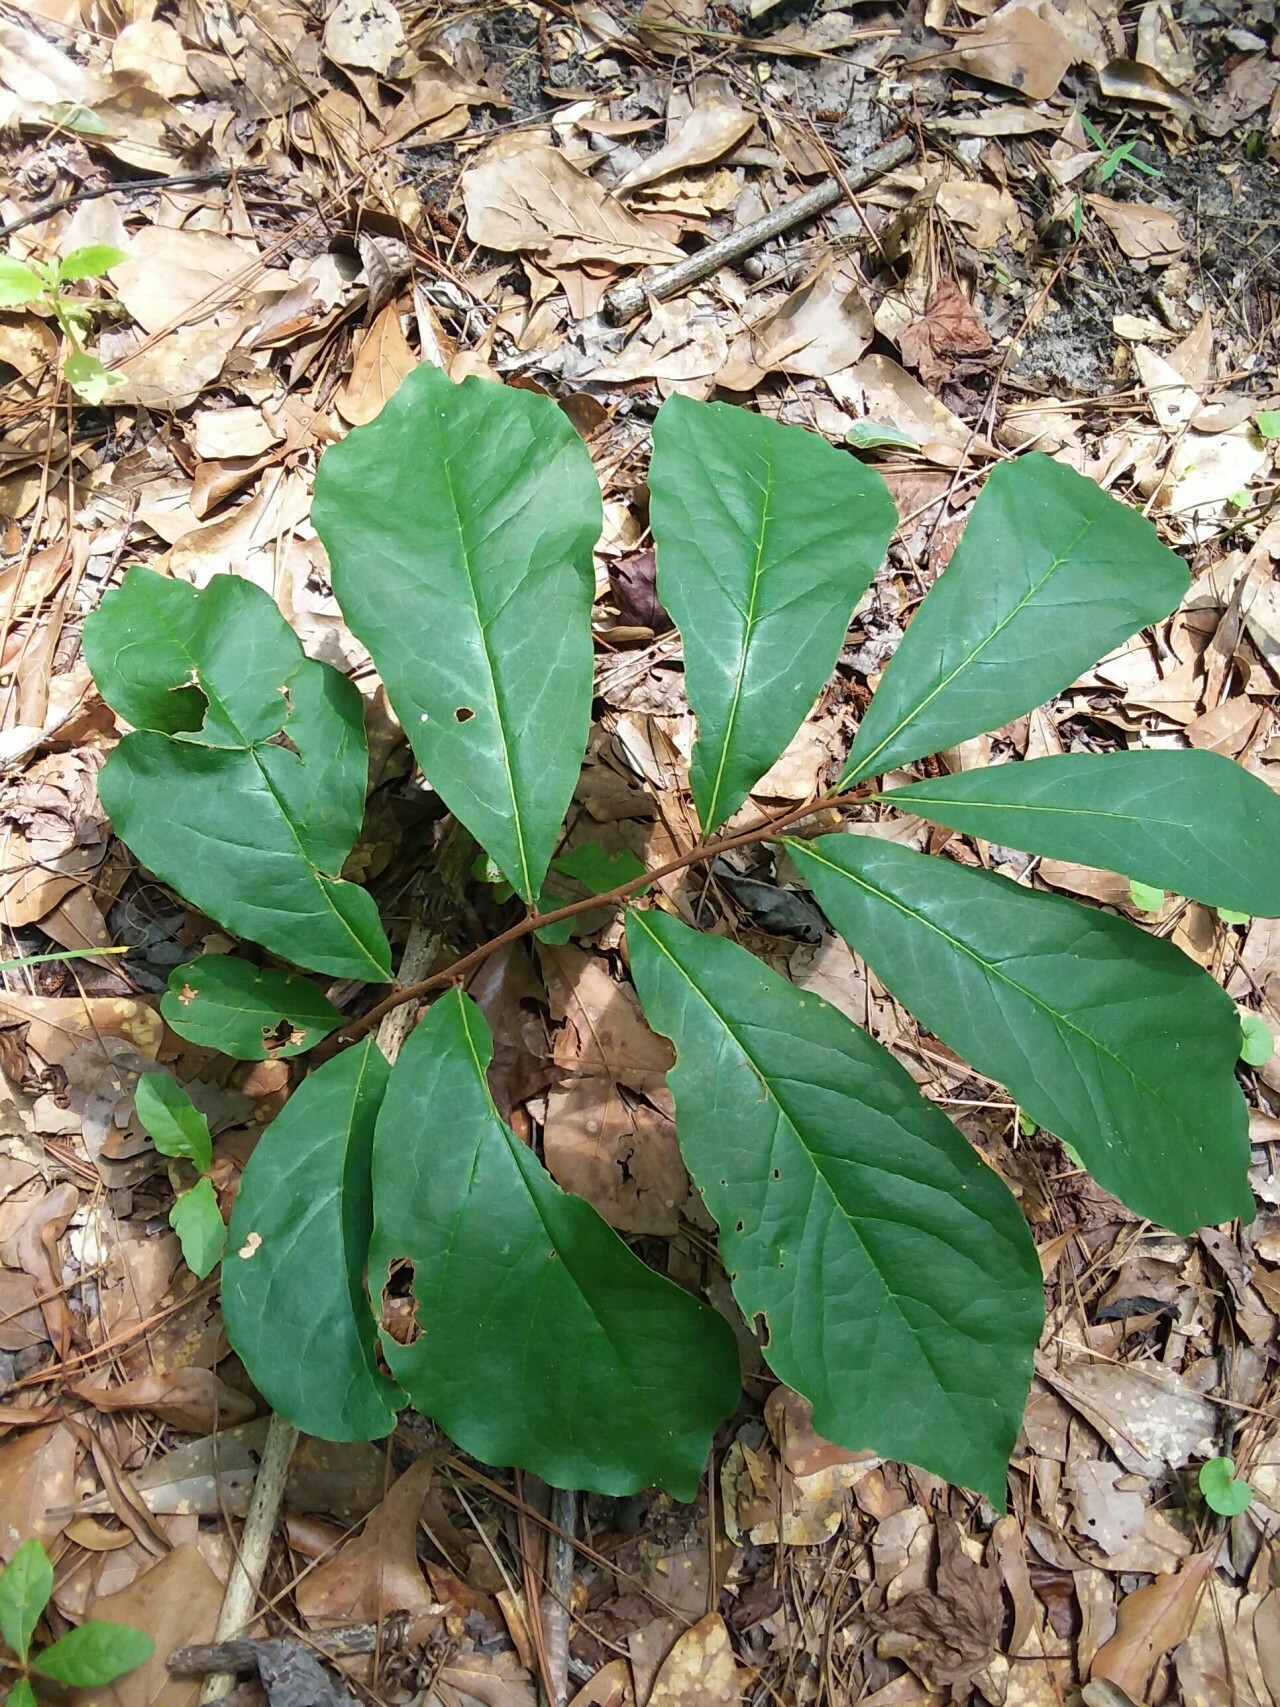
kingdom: Plantae
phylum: Tracheophyta
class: Magnoliopsida
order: Magnoliales
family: Annonaceae
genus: Asimina
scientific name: Asimina parviflora
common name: Dwarf pawpaw
